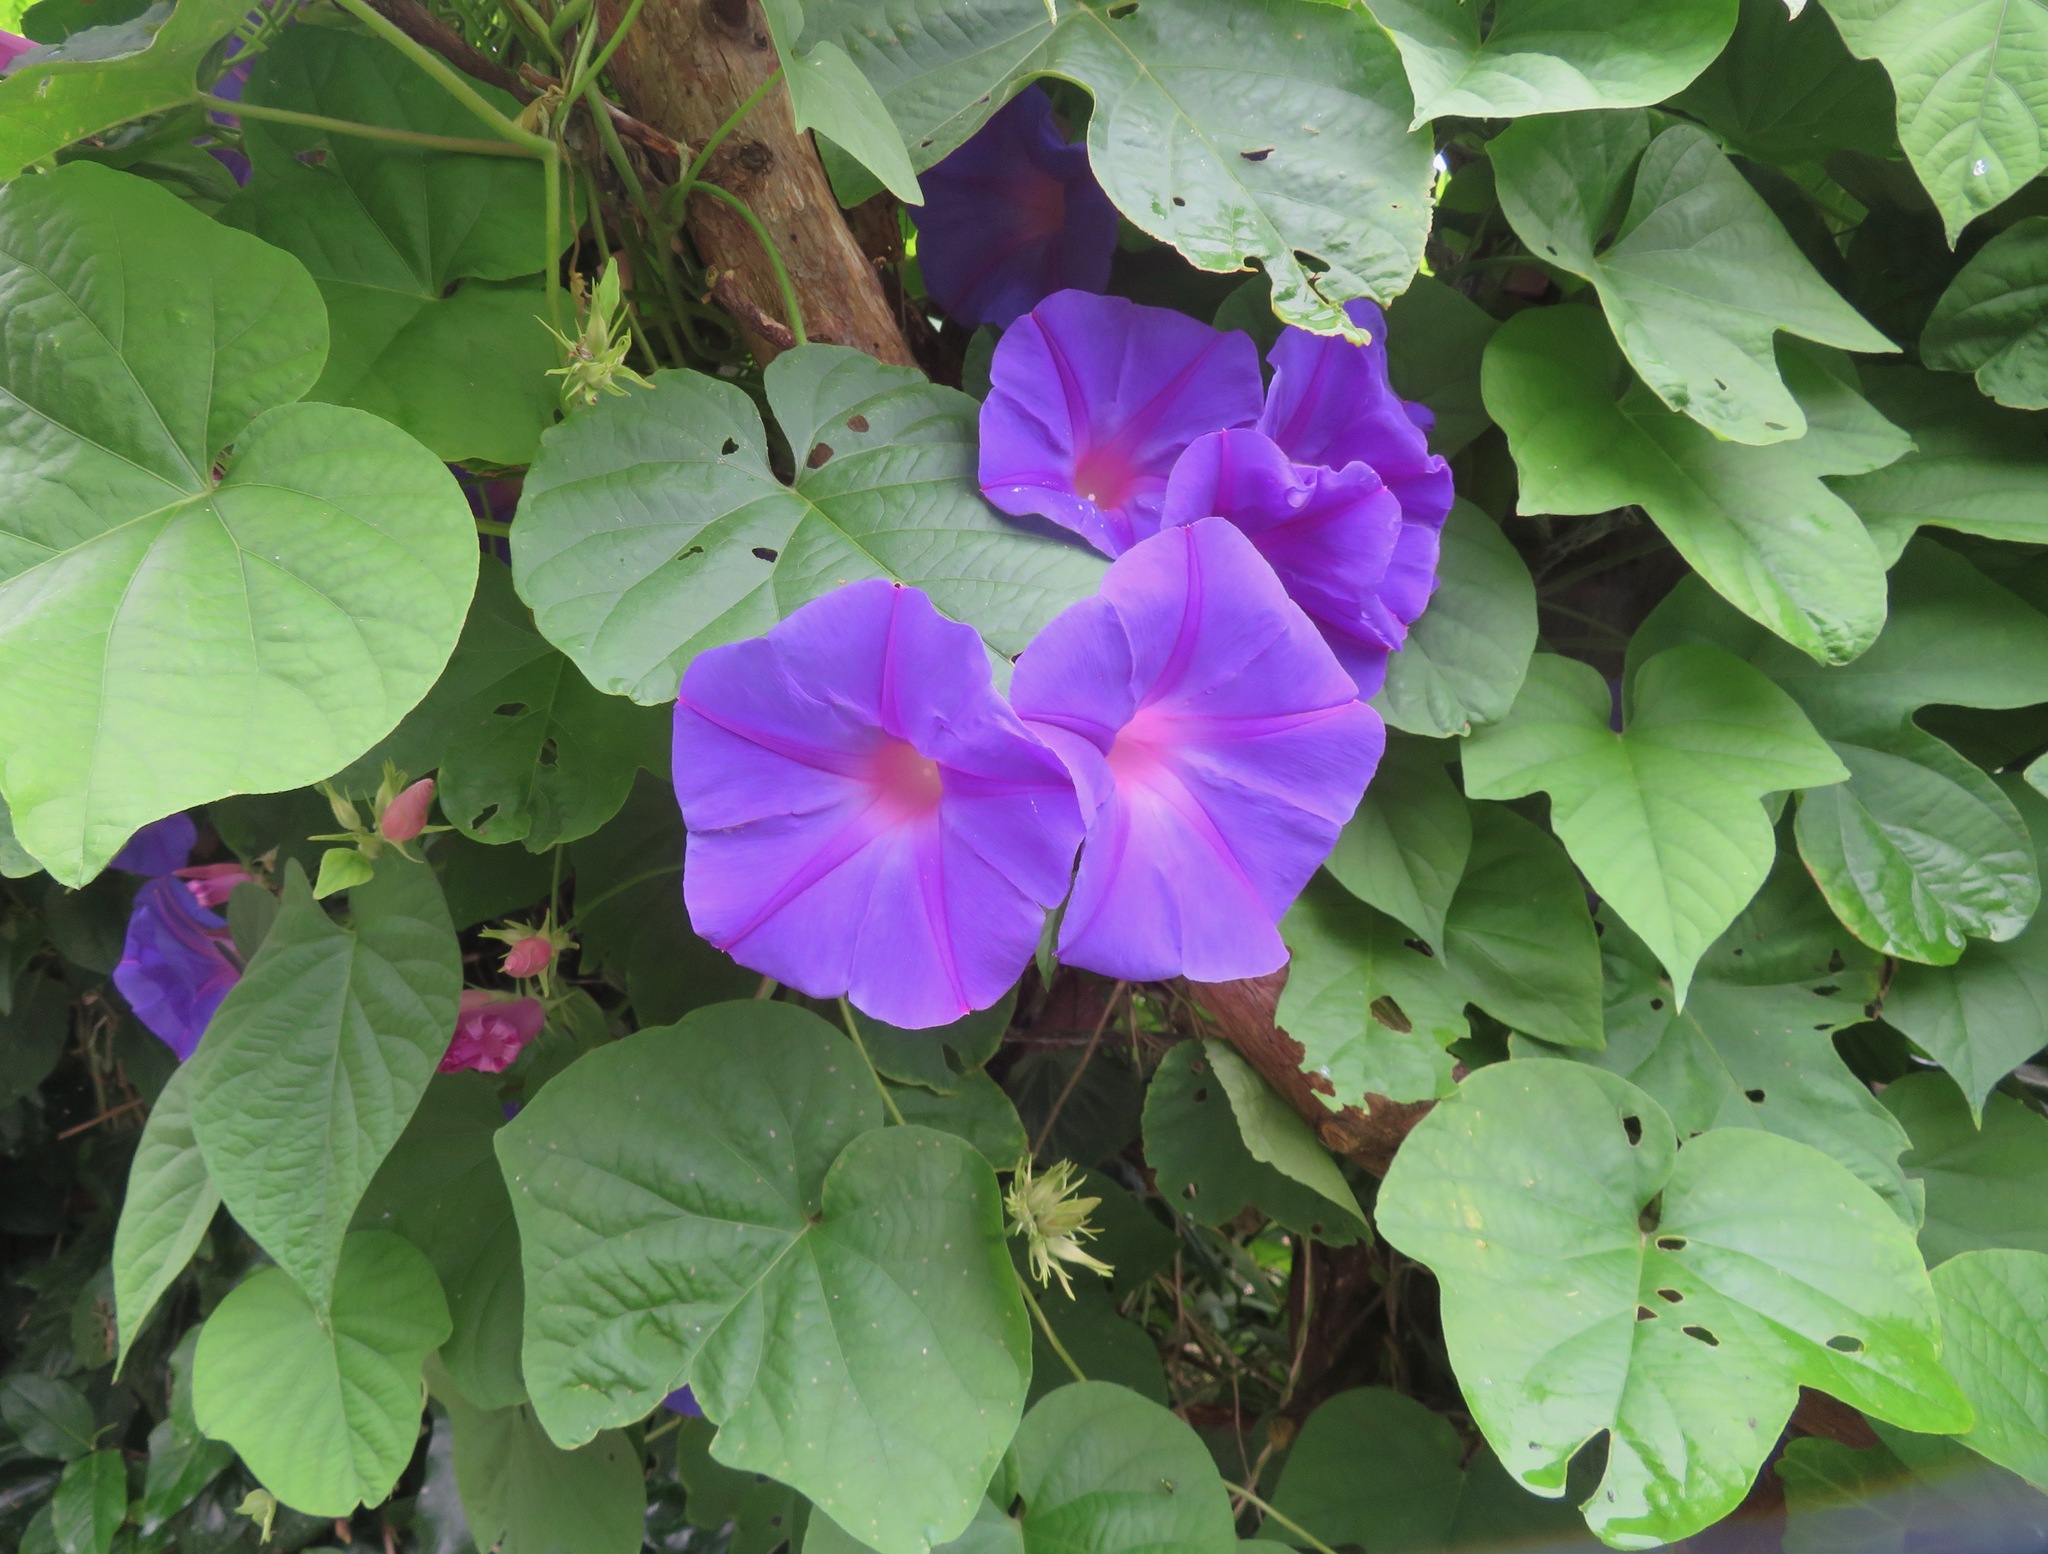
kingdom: Plantae
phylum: Tracheophyta
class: Magnoliopsida
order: Solanales
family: Convolvulaceae
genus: Ipomoea
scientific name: Ipomoea indica
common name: Blue dawnflower
